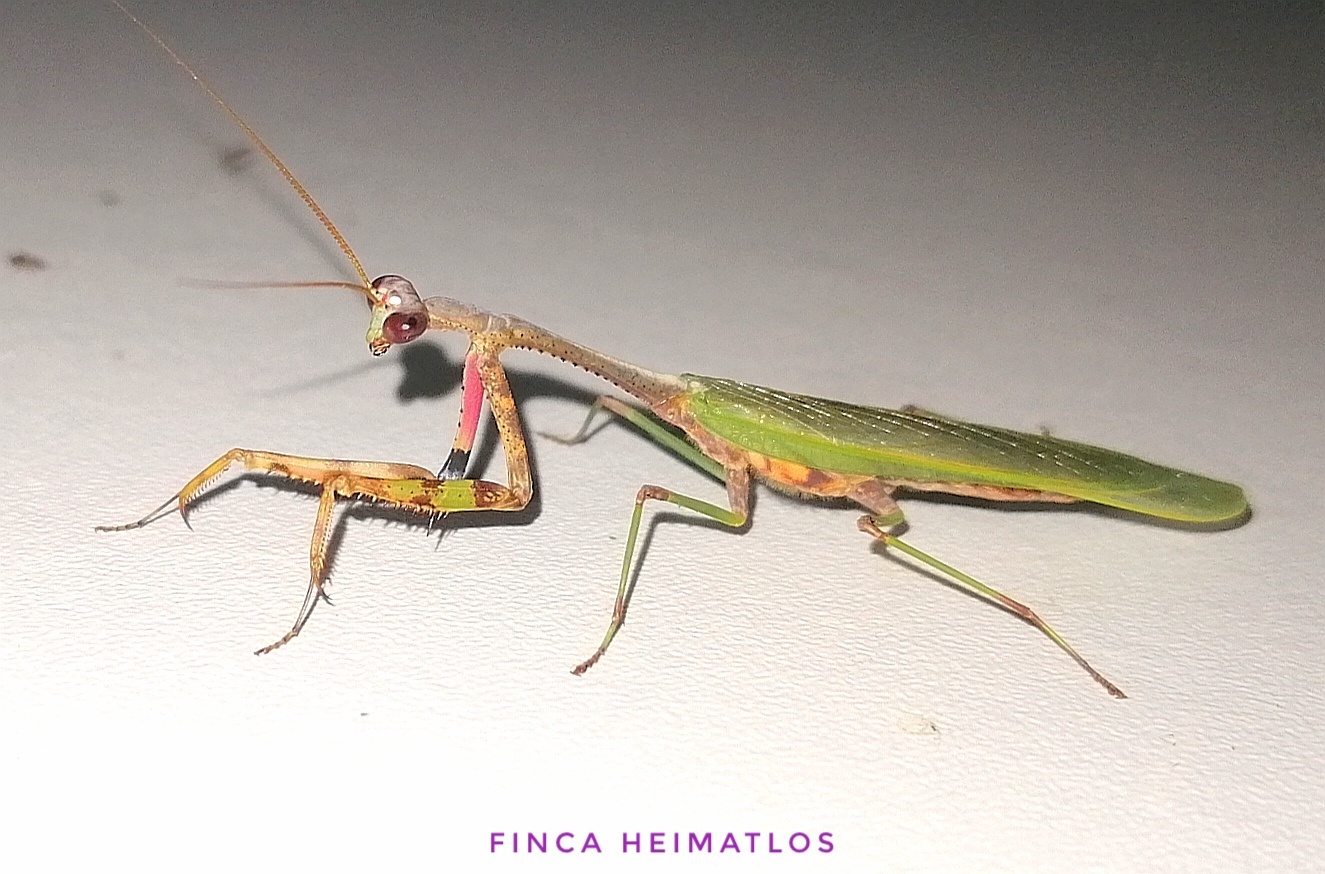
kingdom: Animalia
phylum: Arthropoda
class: Insecta
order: Mantodea
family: Mantidae
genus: Parastagmatoptera
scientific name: Parastagmatoptera sottilei
